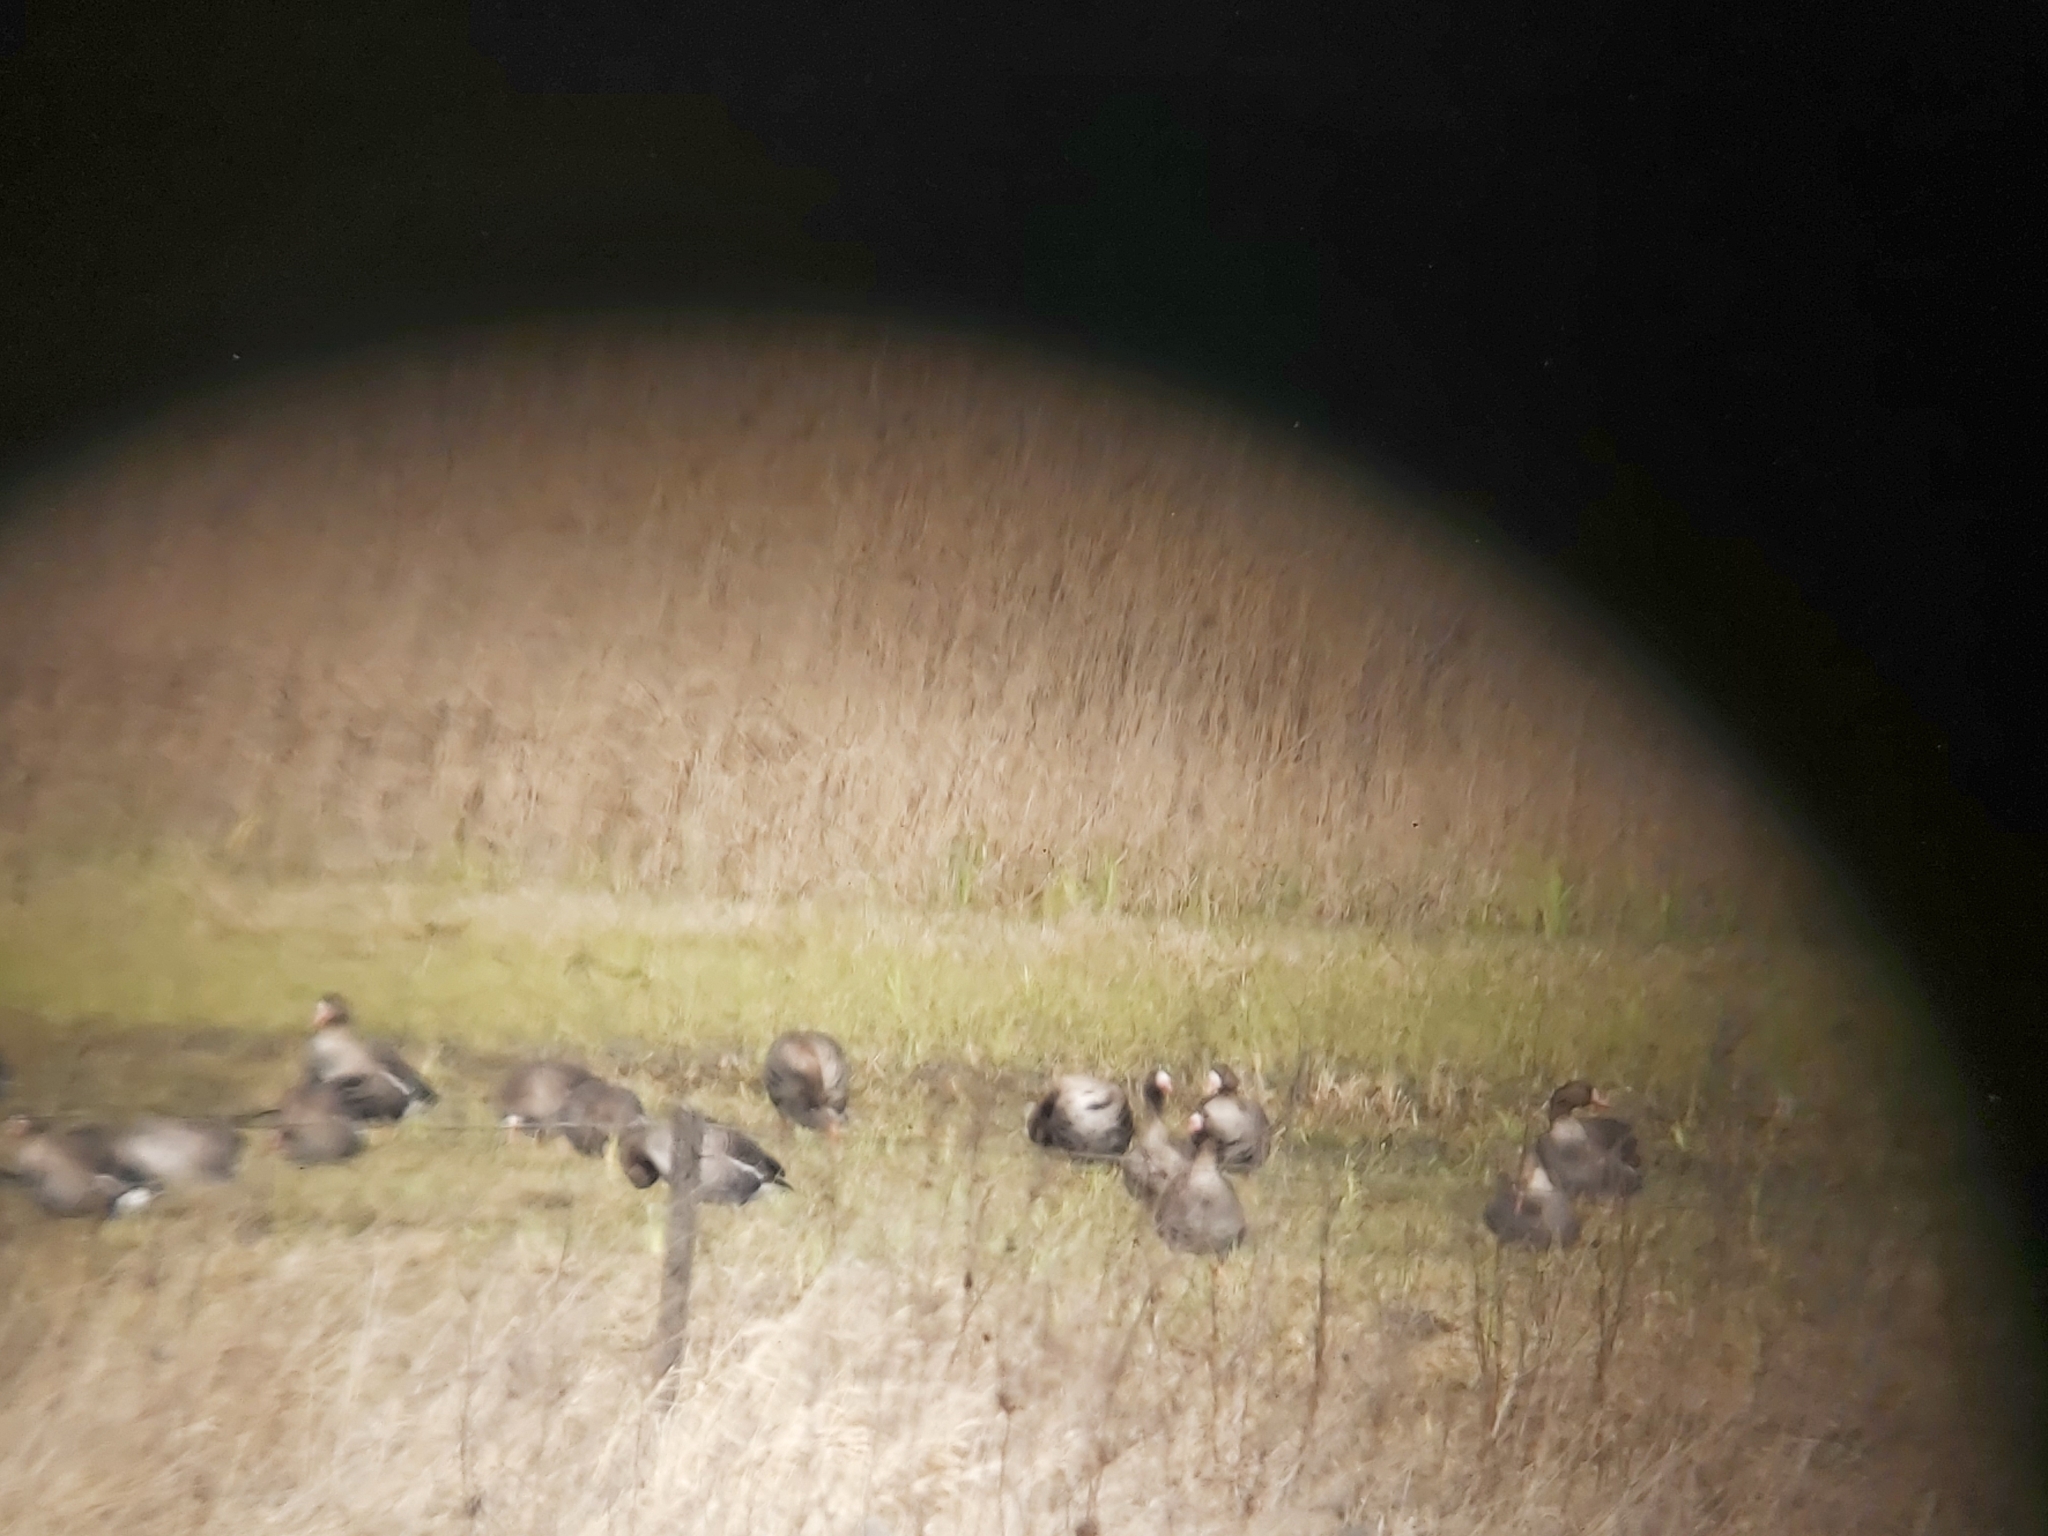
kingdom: Animalia
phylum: Chordata
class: Aves
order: Anseriformes
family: Anatidae
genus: Anser
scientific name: Anser albifrons
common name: Greater white-fronted goose
